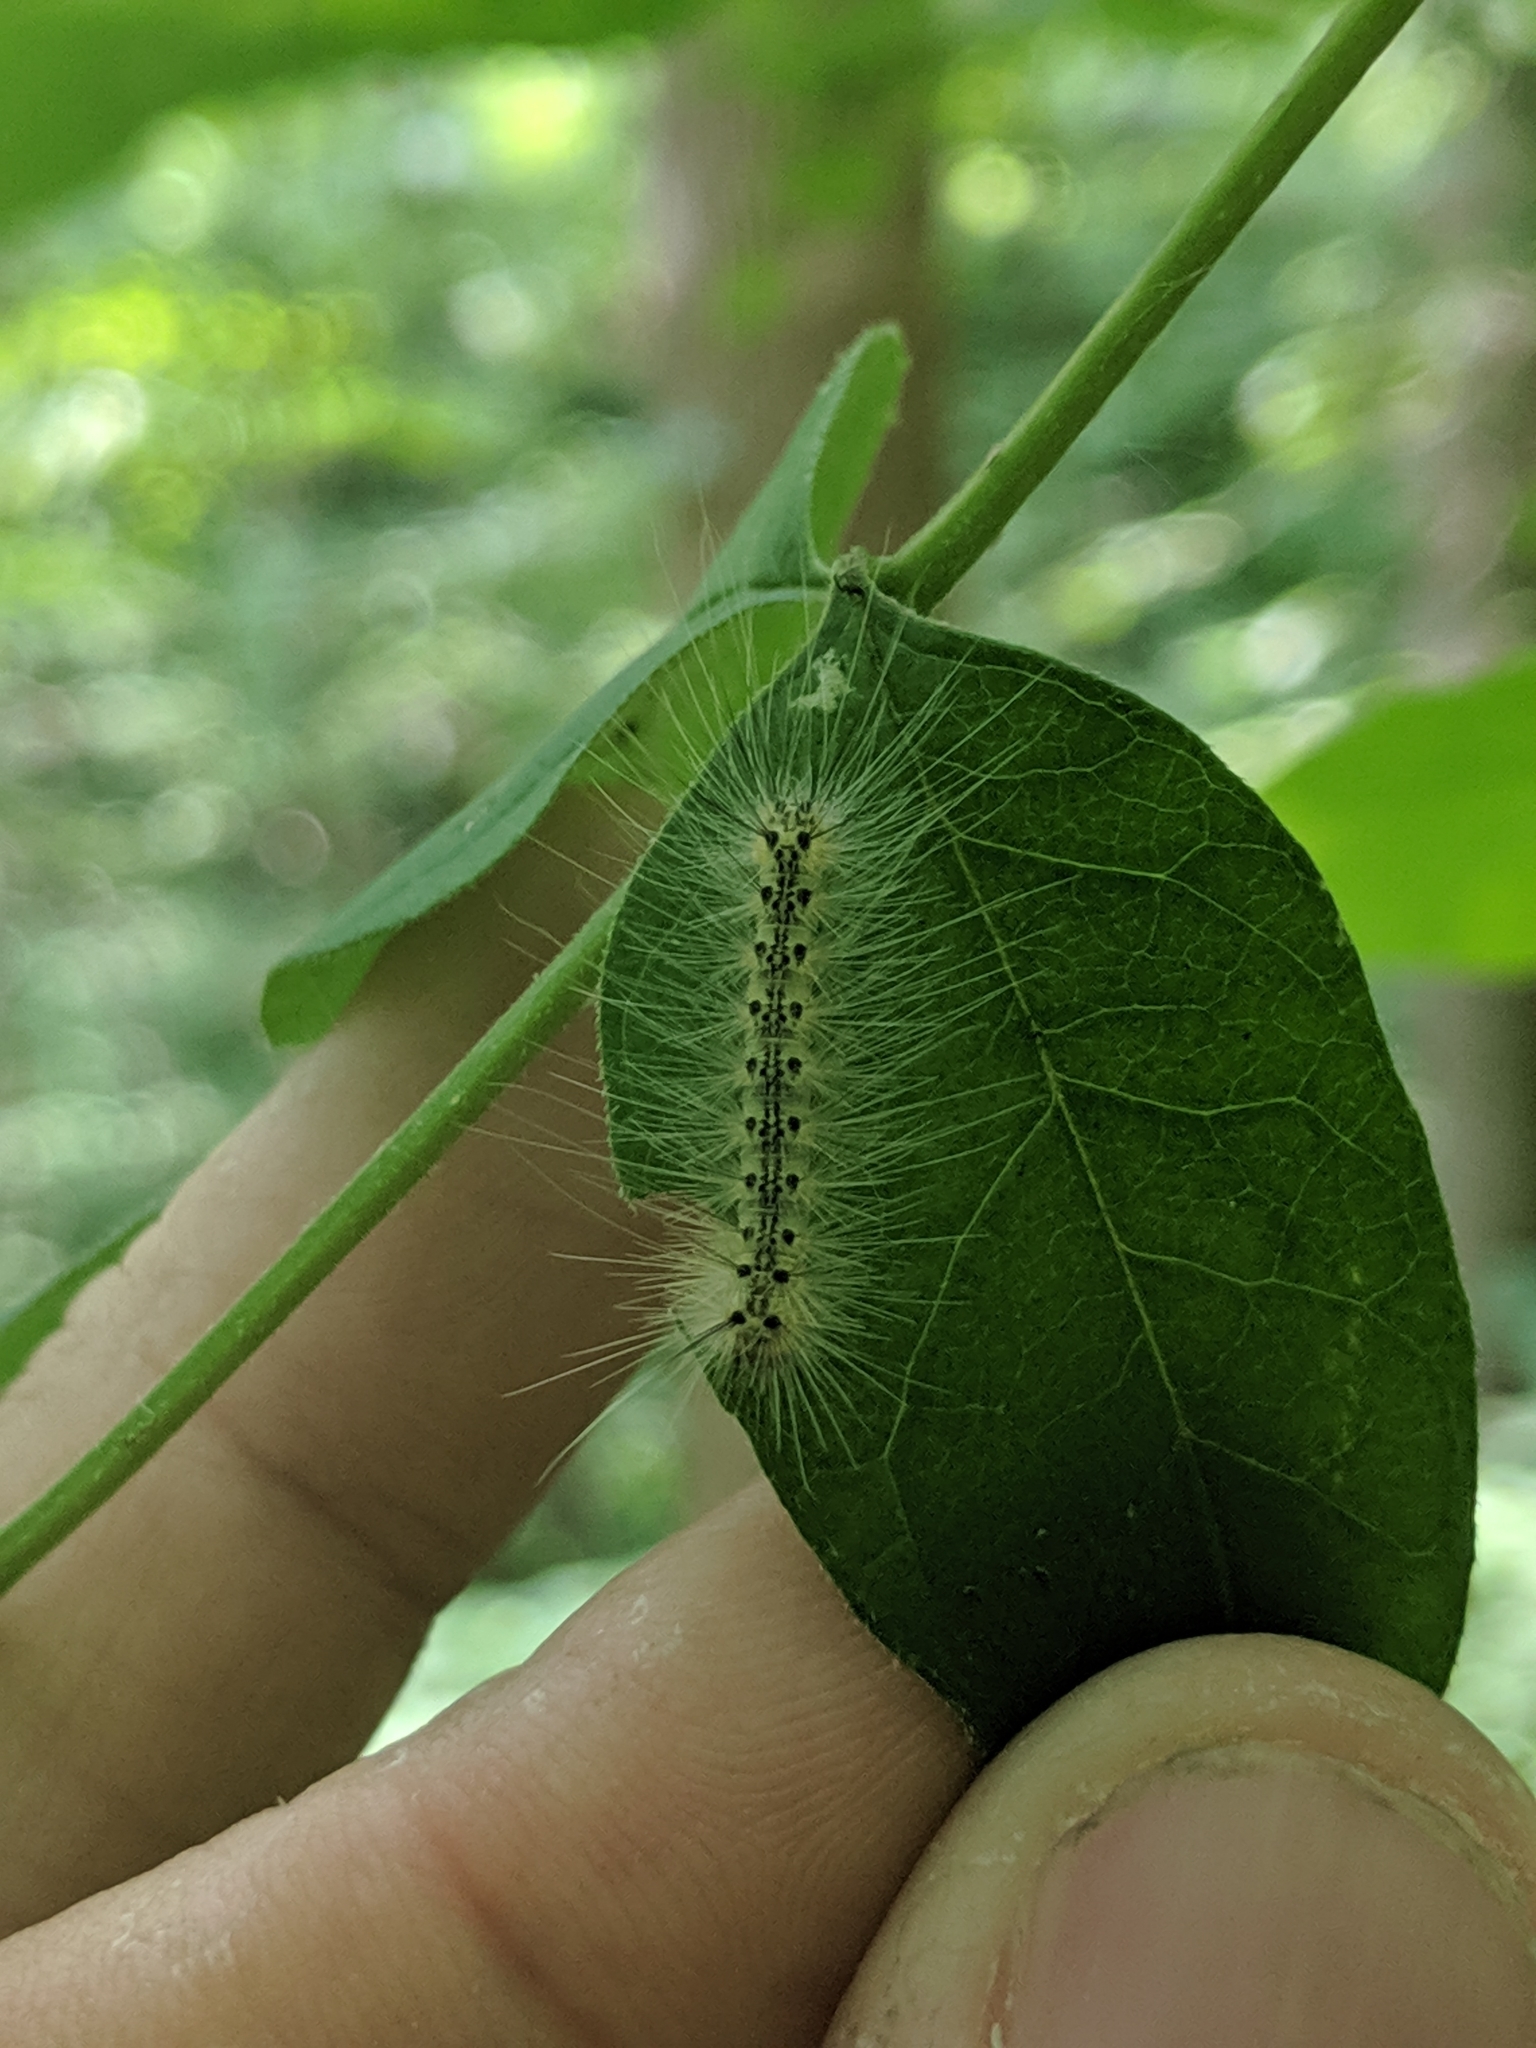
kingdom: Animalia
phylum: Arthropoda
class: Insecta
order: Lepidoptera
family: Erebidae
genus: Hyphantria
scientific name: Hyphantria cunea
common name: American white moth
